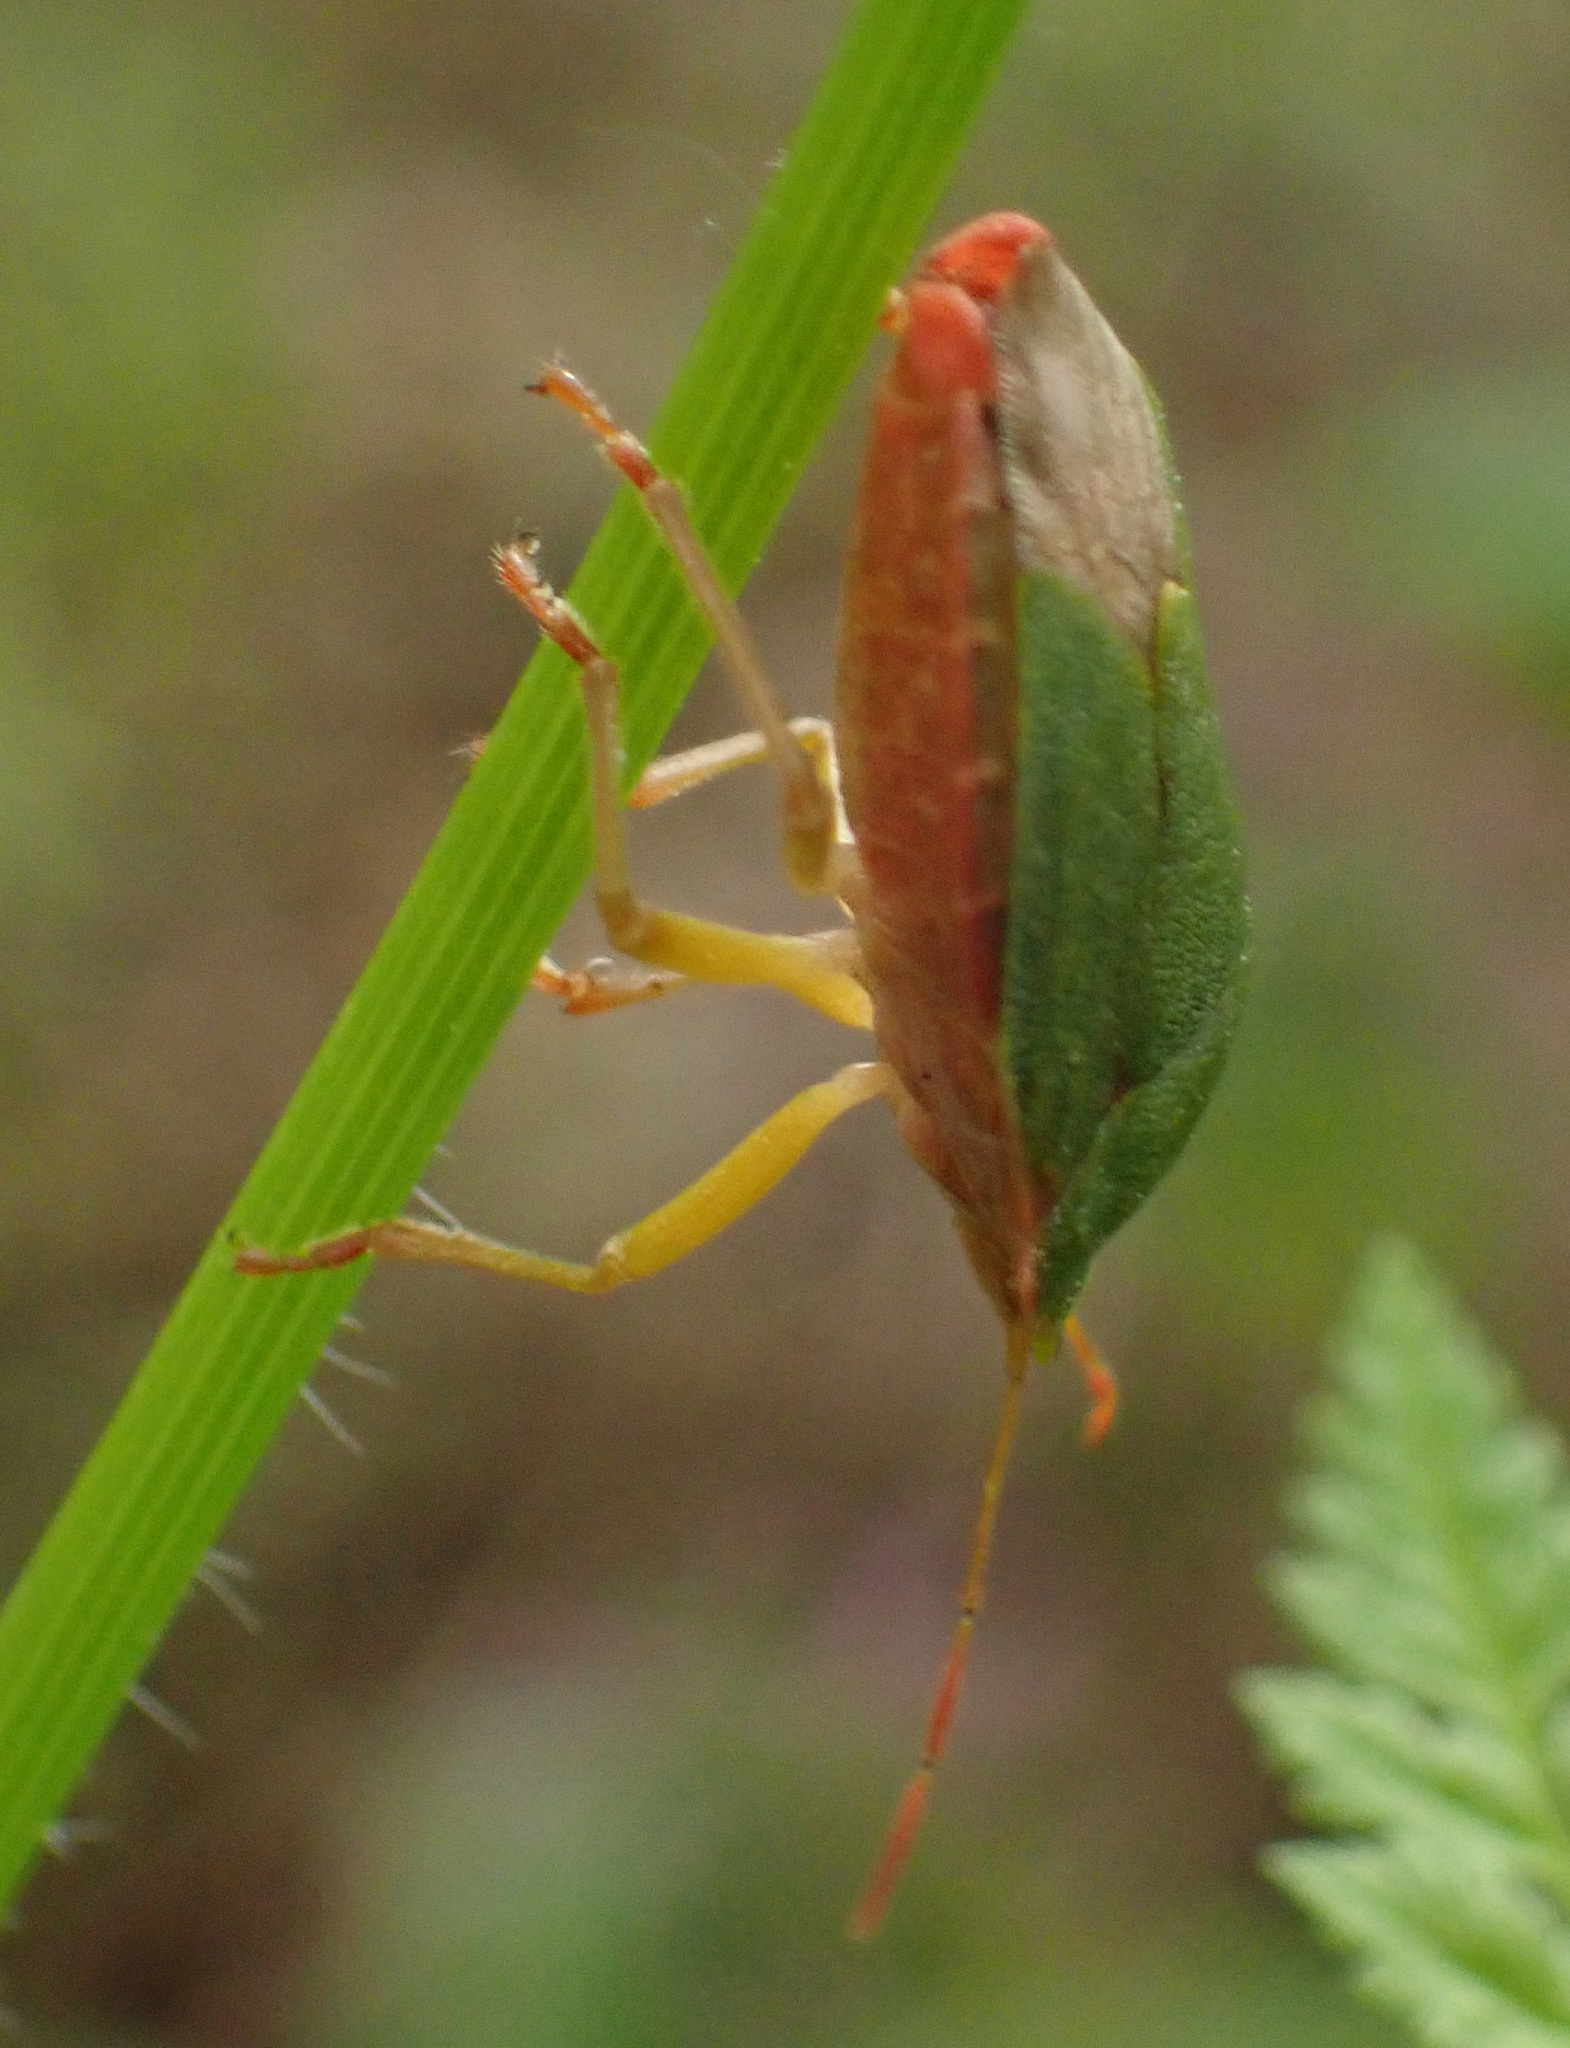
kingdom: Animalia
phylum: Arthropoda
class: Insecta
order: Hemiptera
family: Pentatomidae
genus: Palomena
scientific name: Palomena prasina
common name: Green shieldbug
